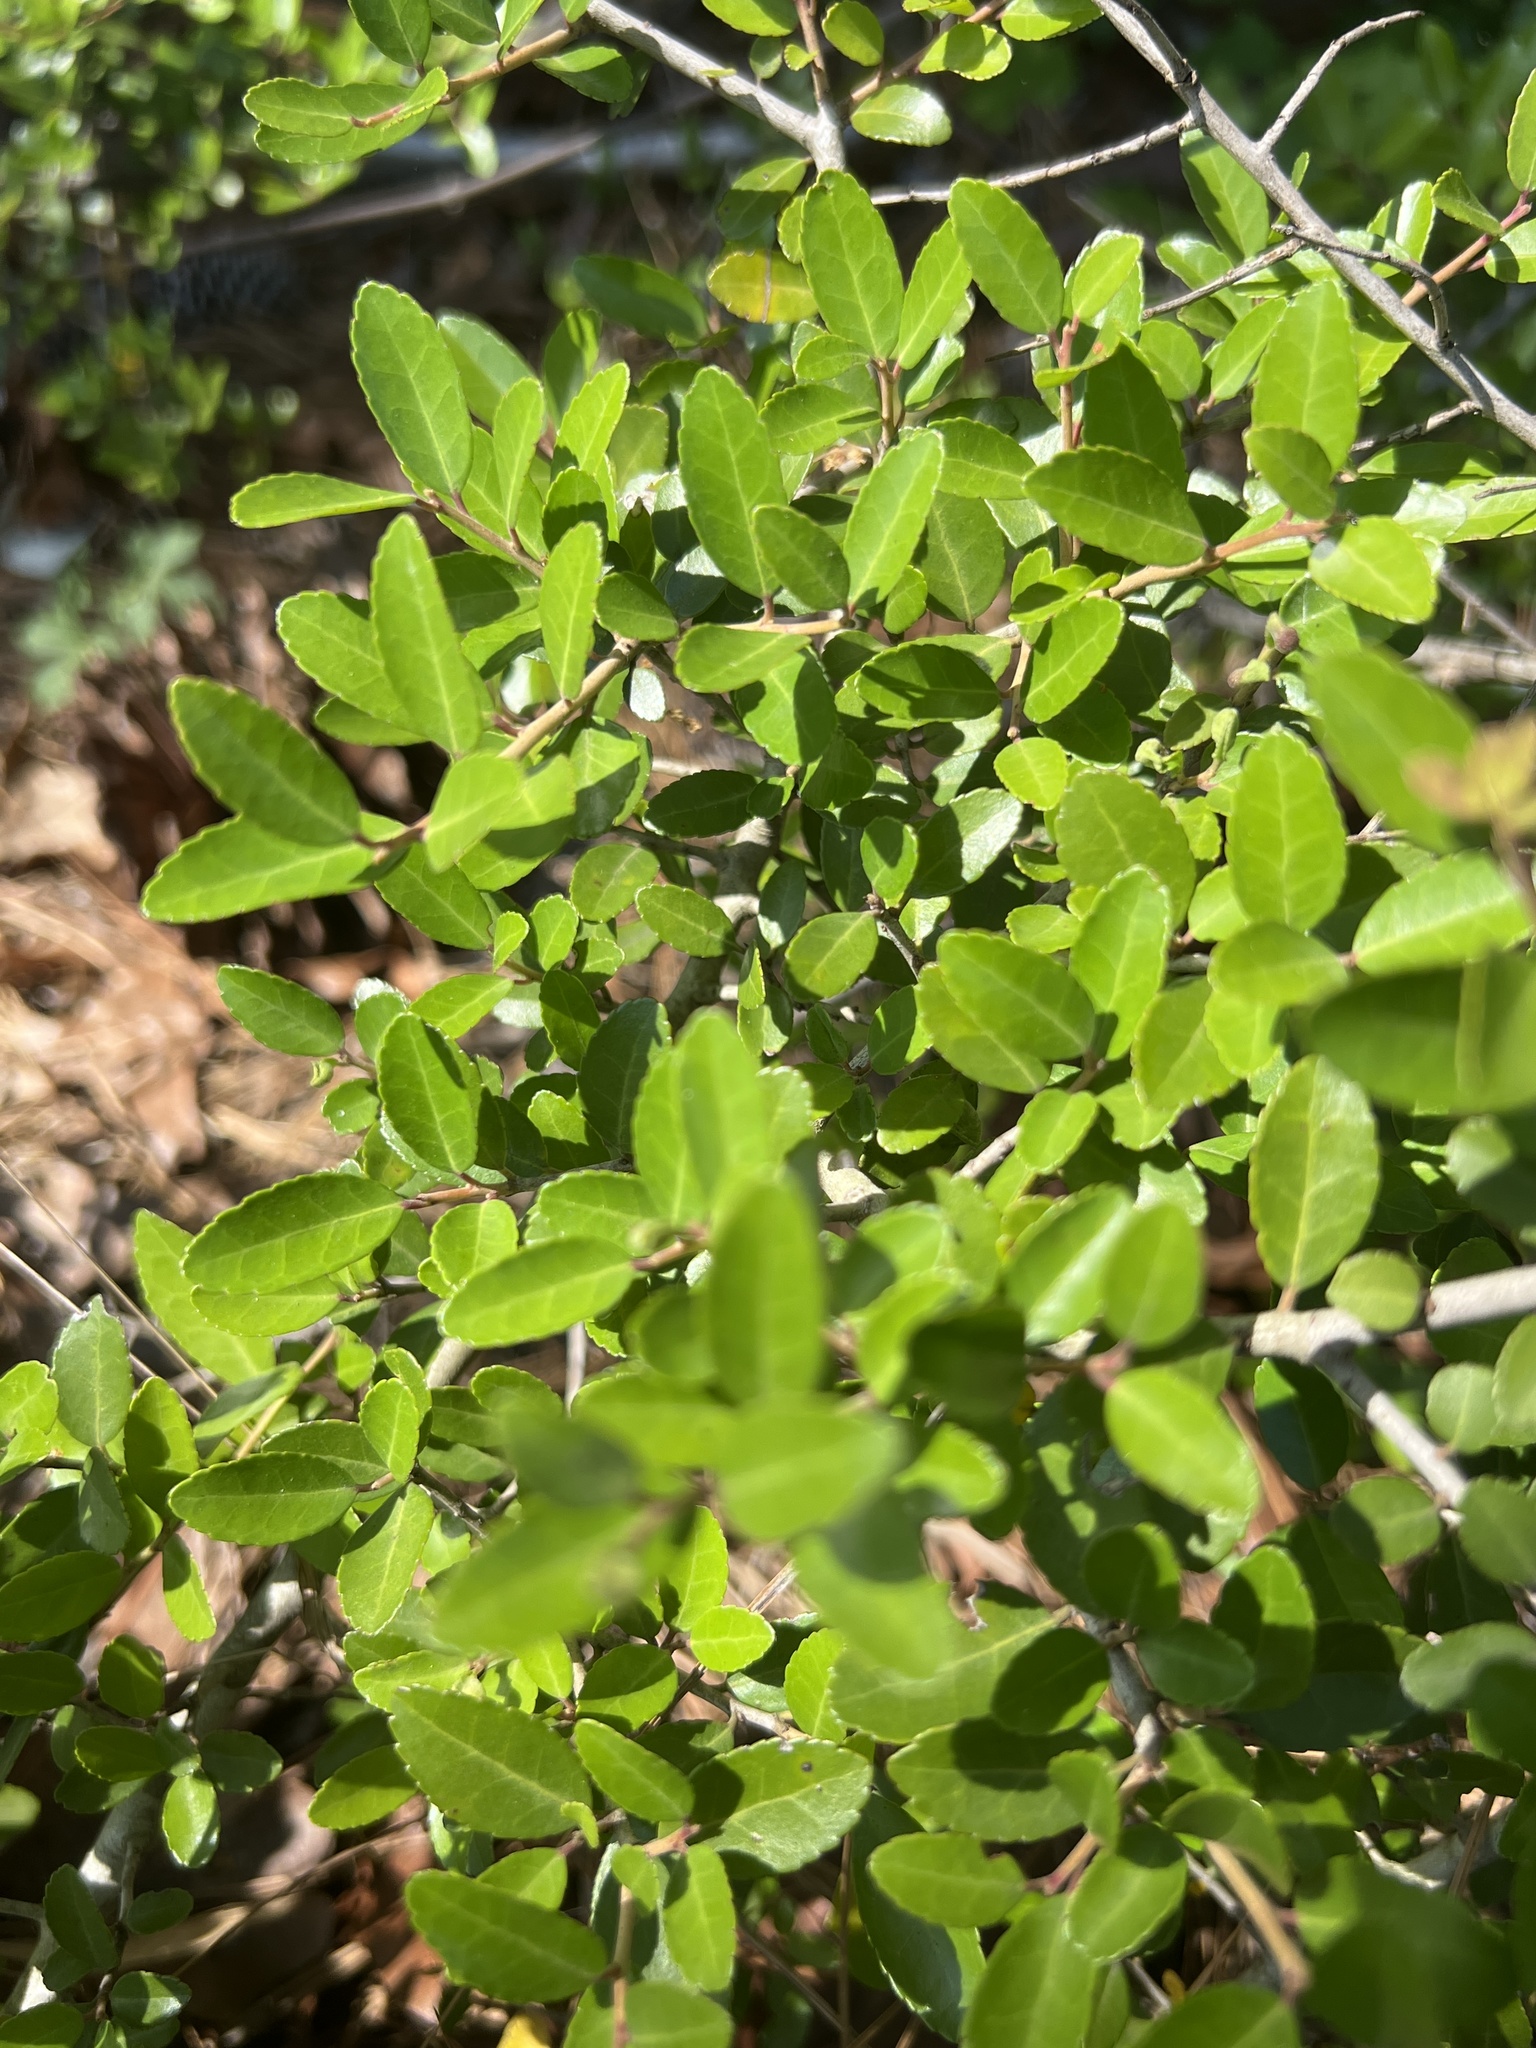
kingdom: Plantae
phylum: Tracheophyta
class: Magnoliopsida
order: Aquifoliales
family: Aquifoliaceae
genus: Ilex
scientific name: Ilex vomitoria
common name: Yaupon holly
